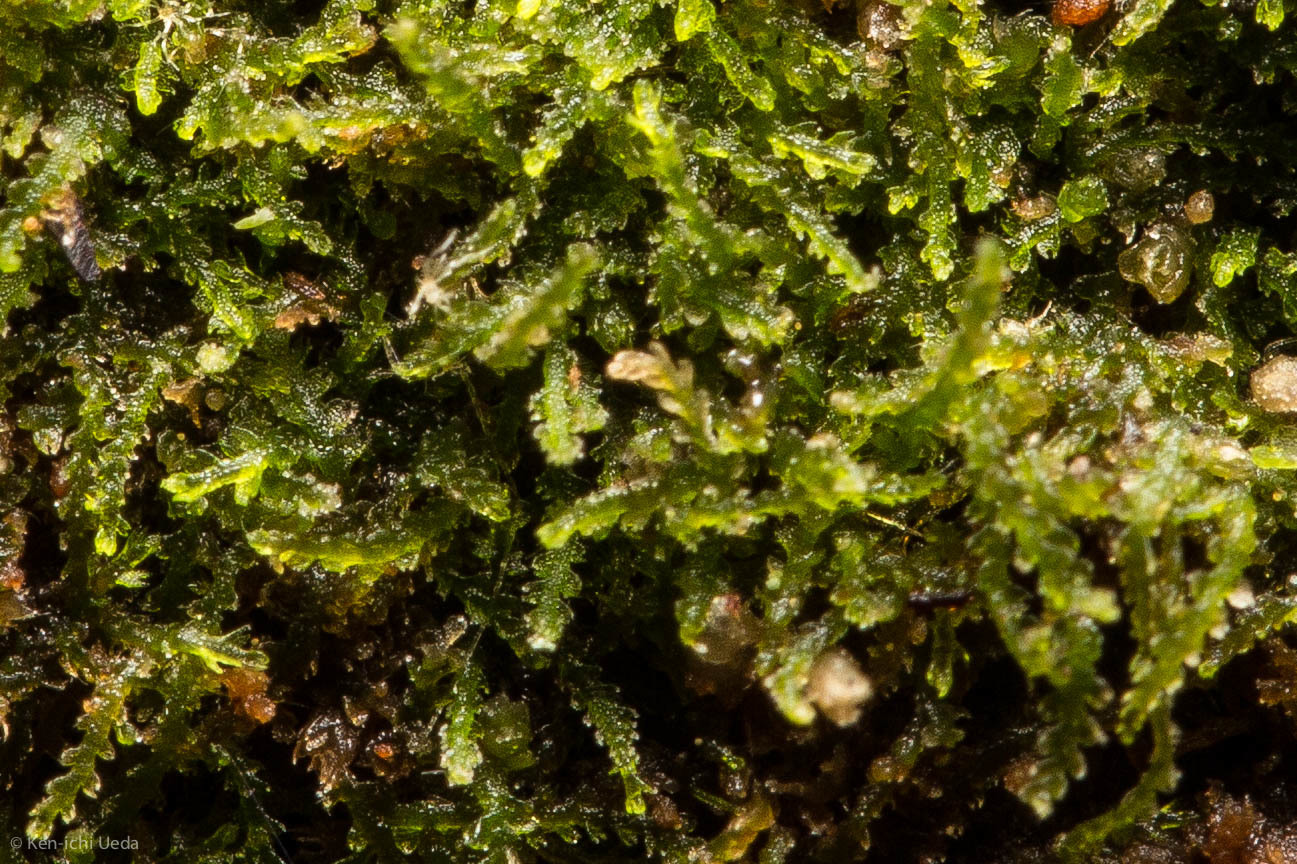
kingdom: Plantae
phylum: Marchantiophyta
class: Jungermanniopsida
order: Jungermanniales
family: Cephaloziaceae
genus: Fuscocephaloziopsis
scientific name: Fuscocephaloziopsis lunulifolia
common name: Moon-leaved pincerwort
